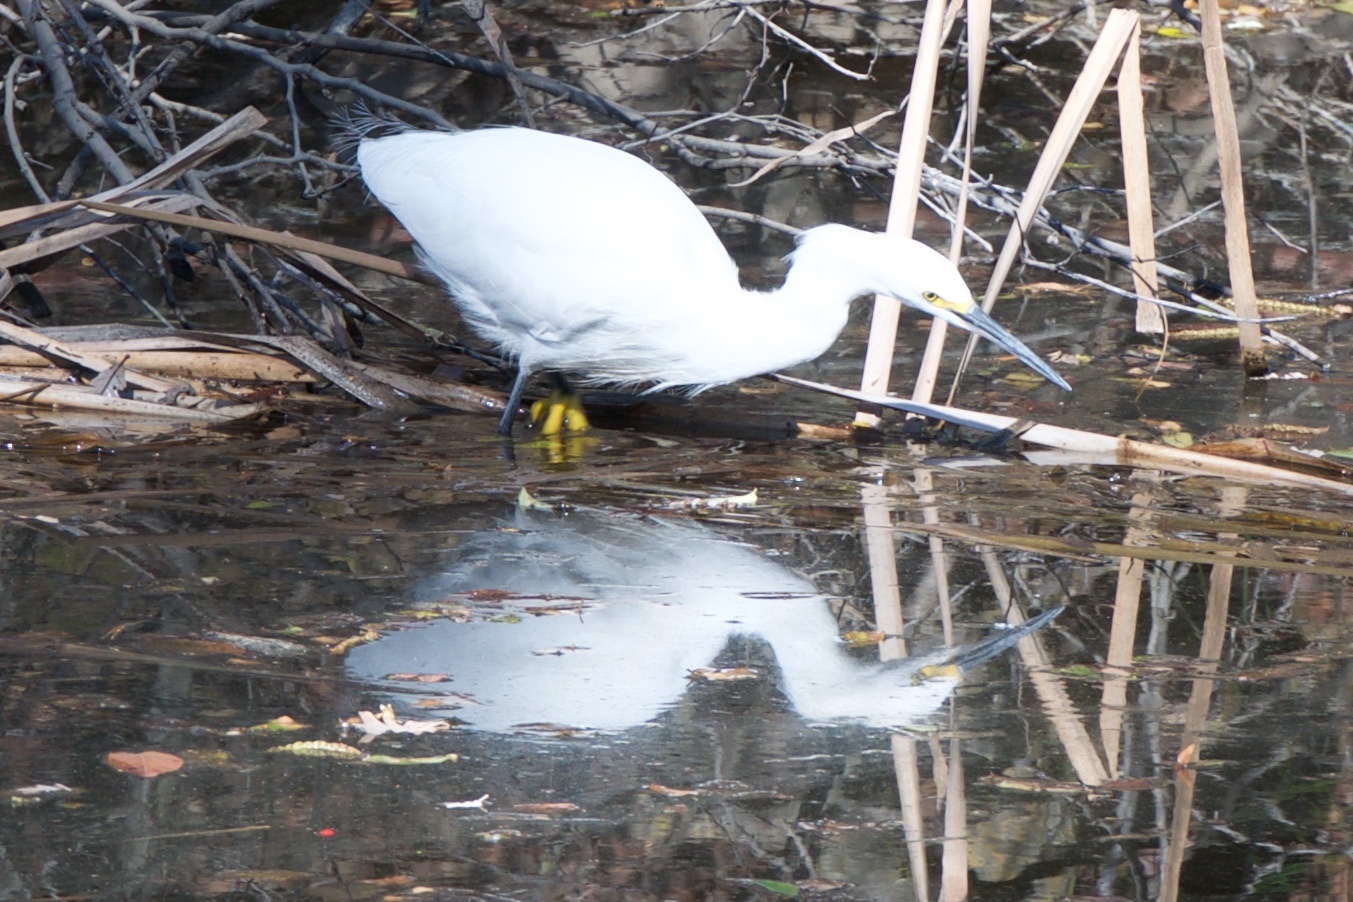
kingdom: Animalia
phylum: Chordata
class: Aves
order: Pelecaniformes
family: Ardeidae
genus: Egretta
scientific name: Egretta thula
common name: Snowy egret
